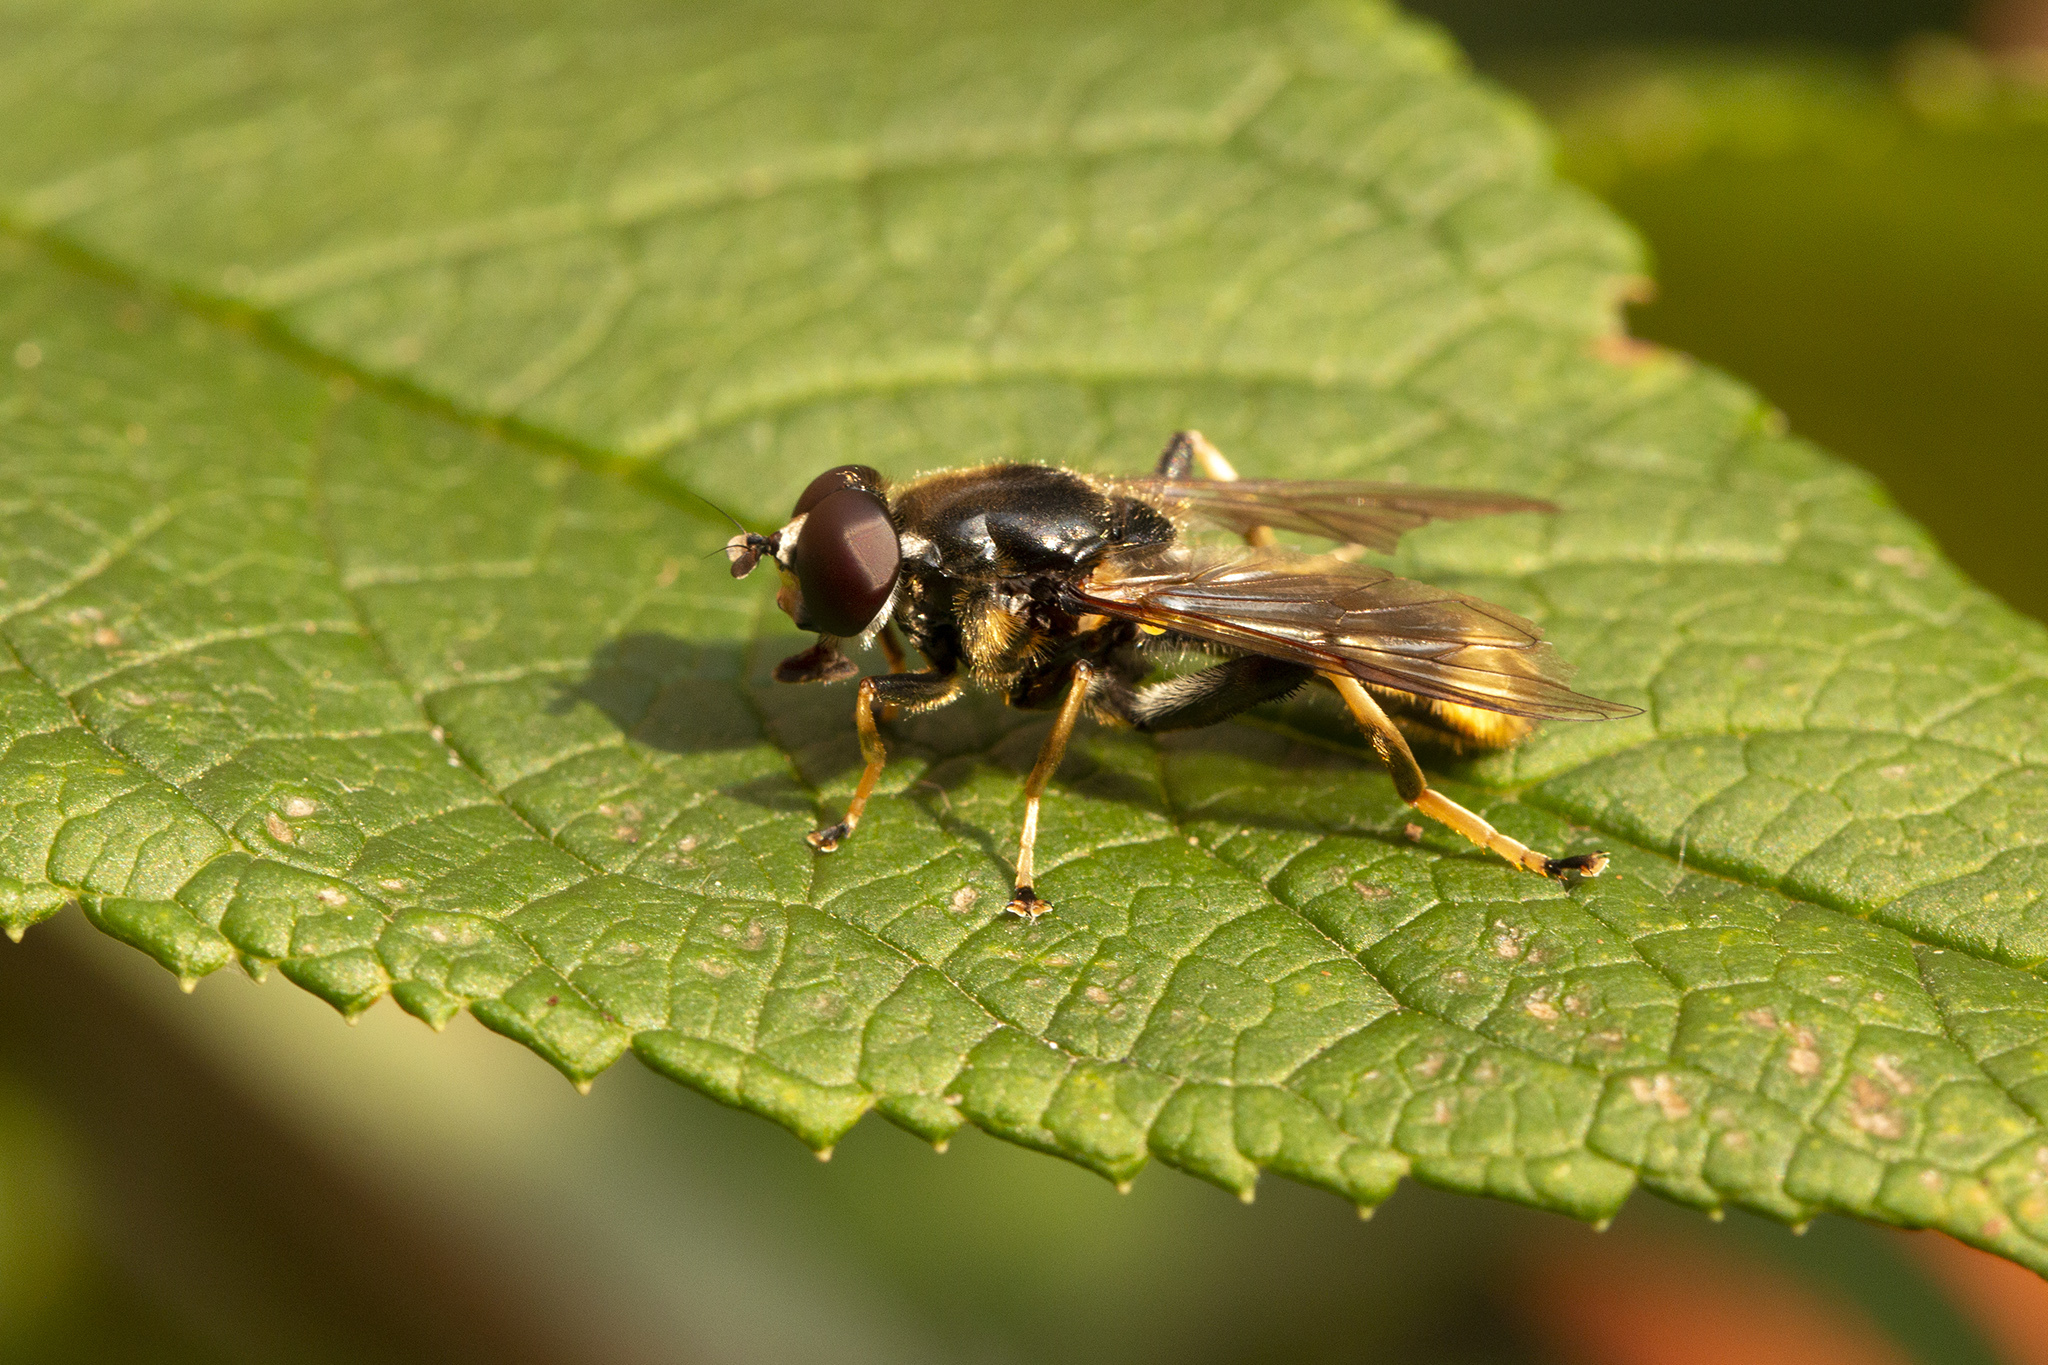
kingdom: Animalia
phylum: Arthropoda
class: Insecta
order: Diptera
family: Syrphidae
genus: Xylota
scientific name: Xylota sylvarum
